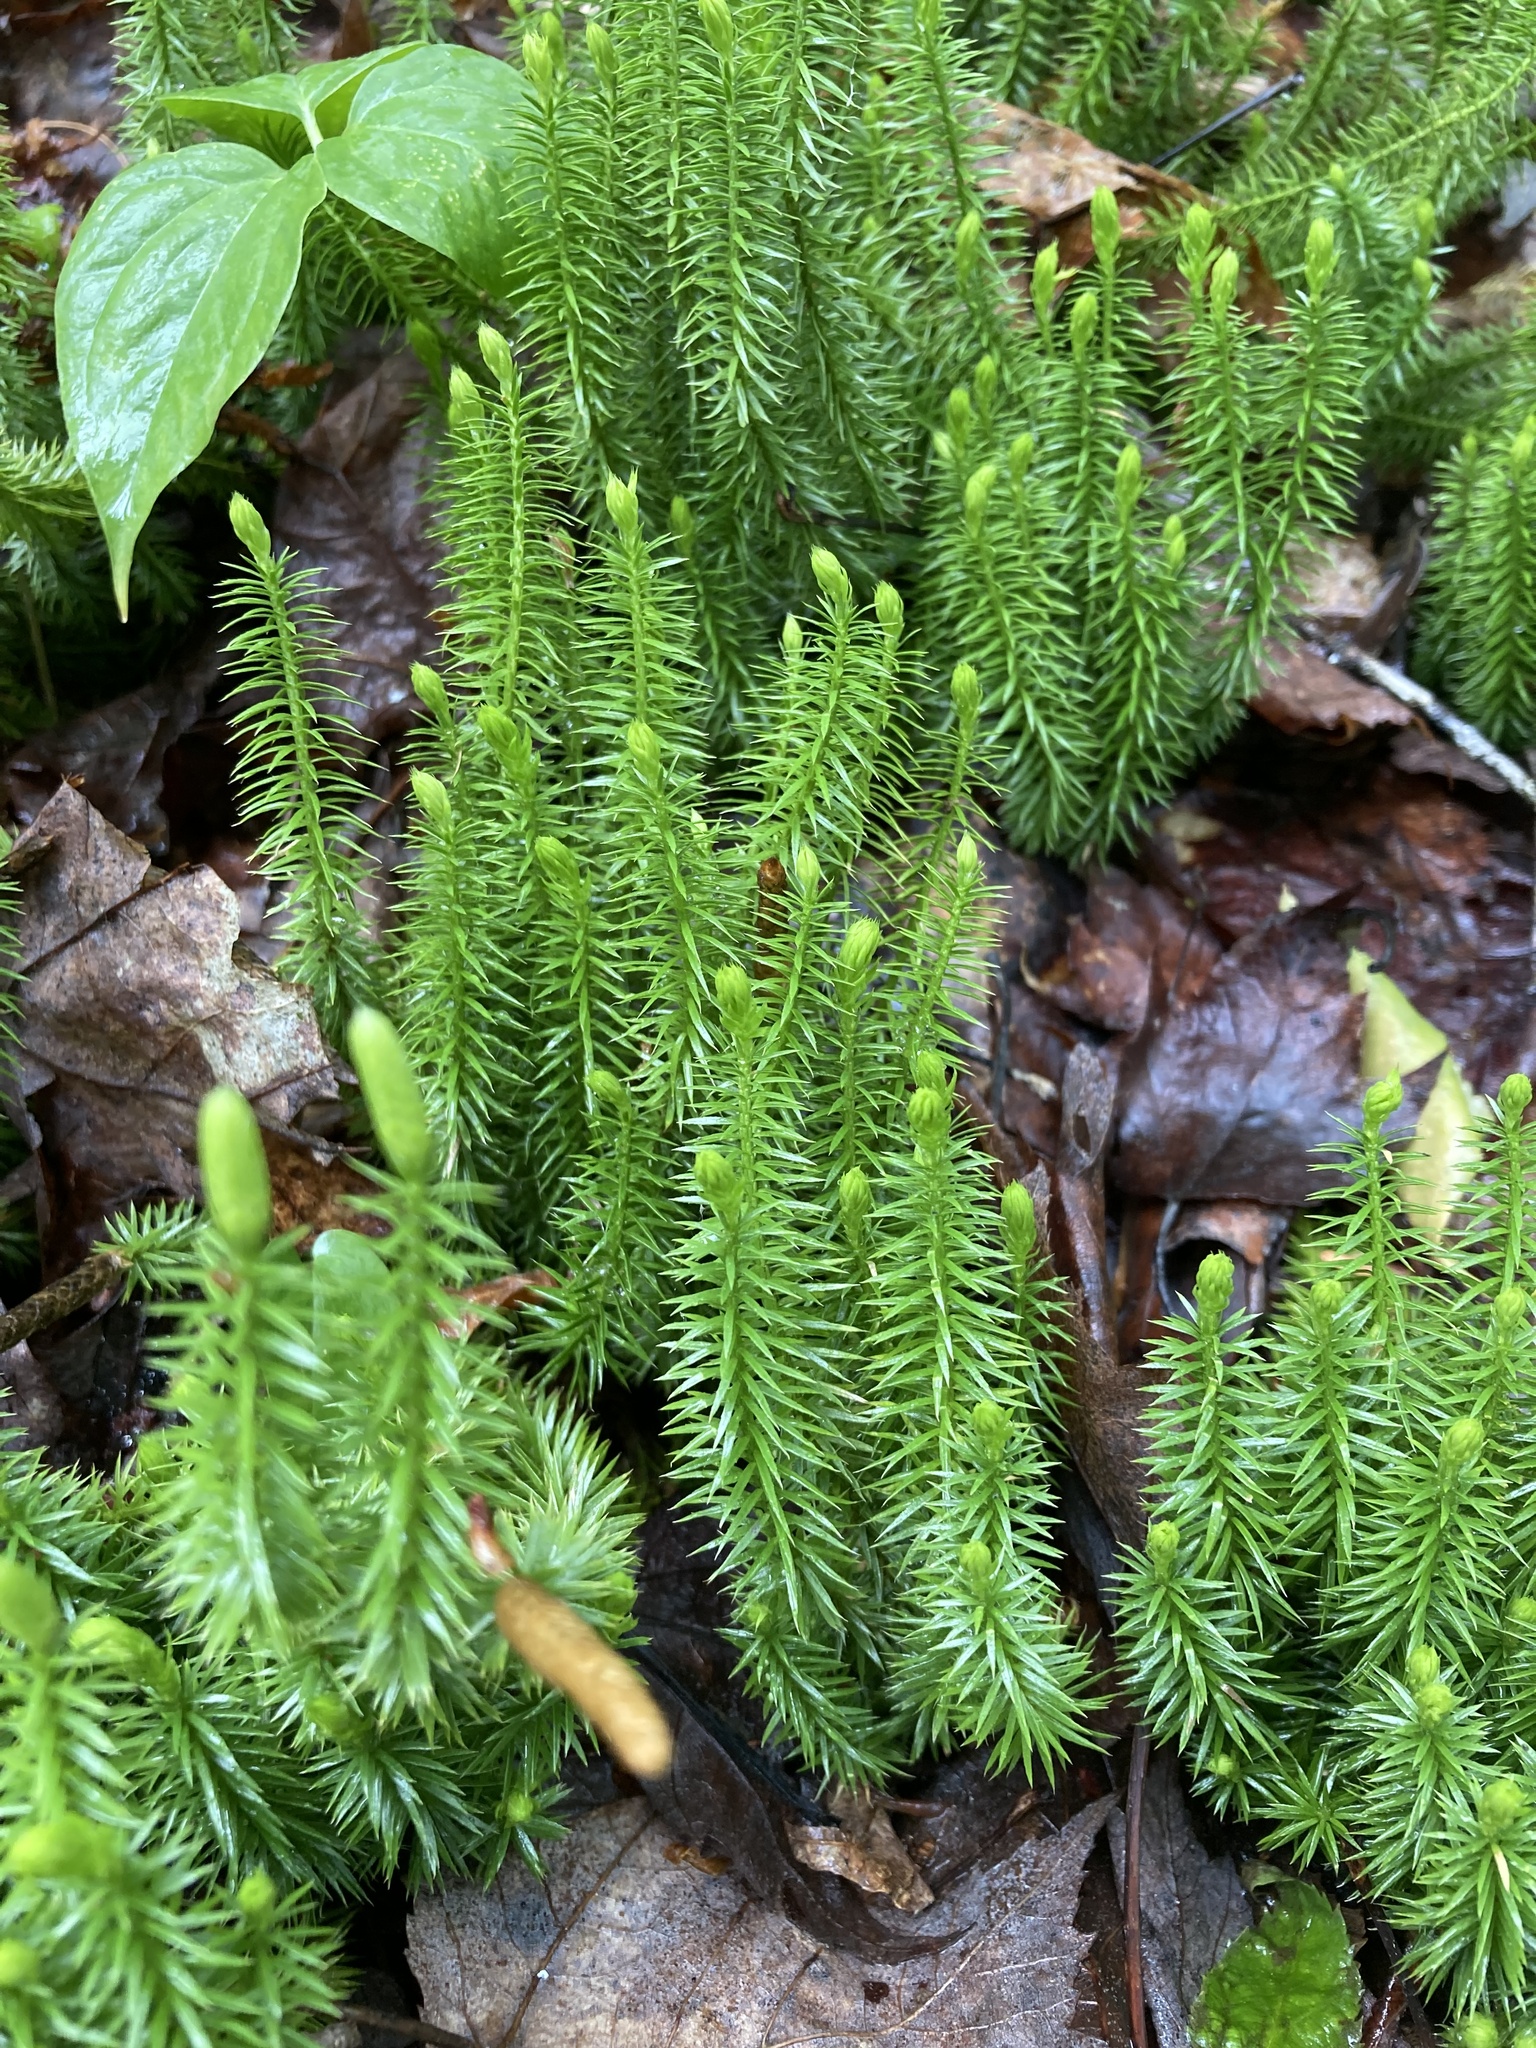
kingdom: Plantae
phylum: Tracheophyta
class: Lycopodiopsida
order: Lycopodiales
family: Lycopodiaceae
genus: Spinulum
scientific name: Spinulum annotinum
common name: Interrupted club-moss
